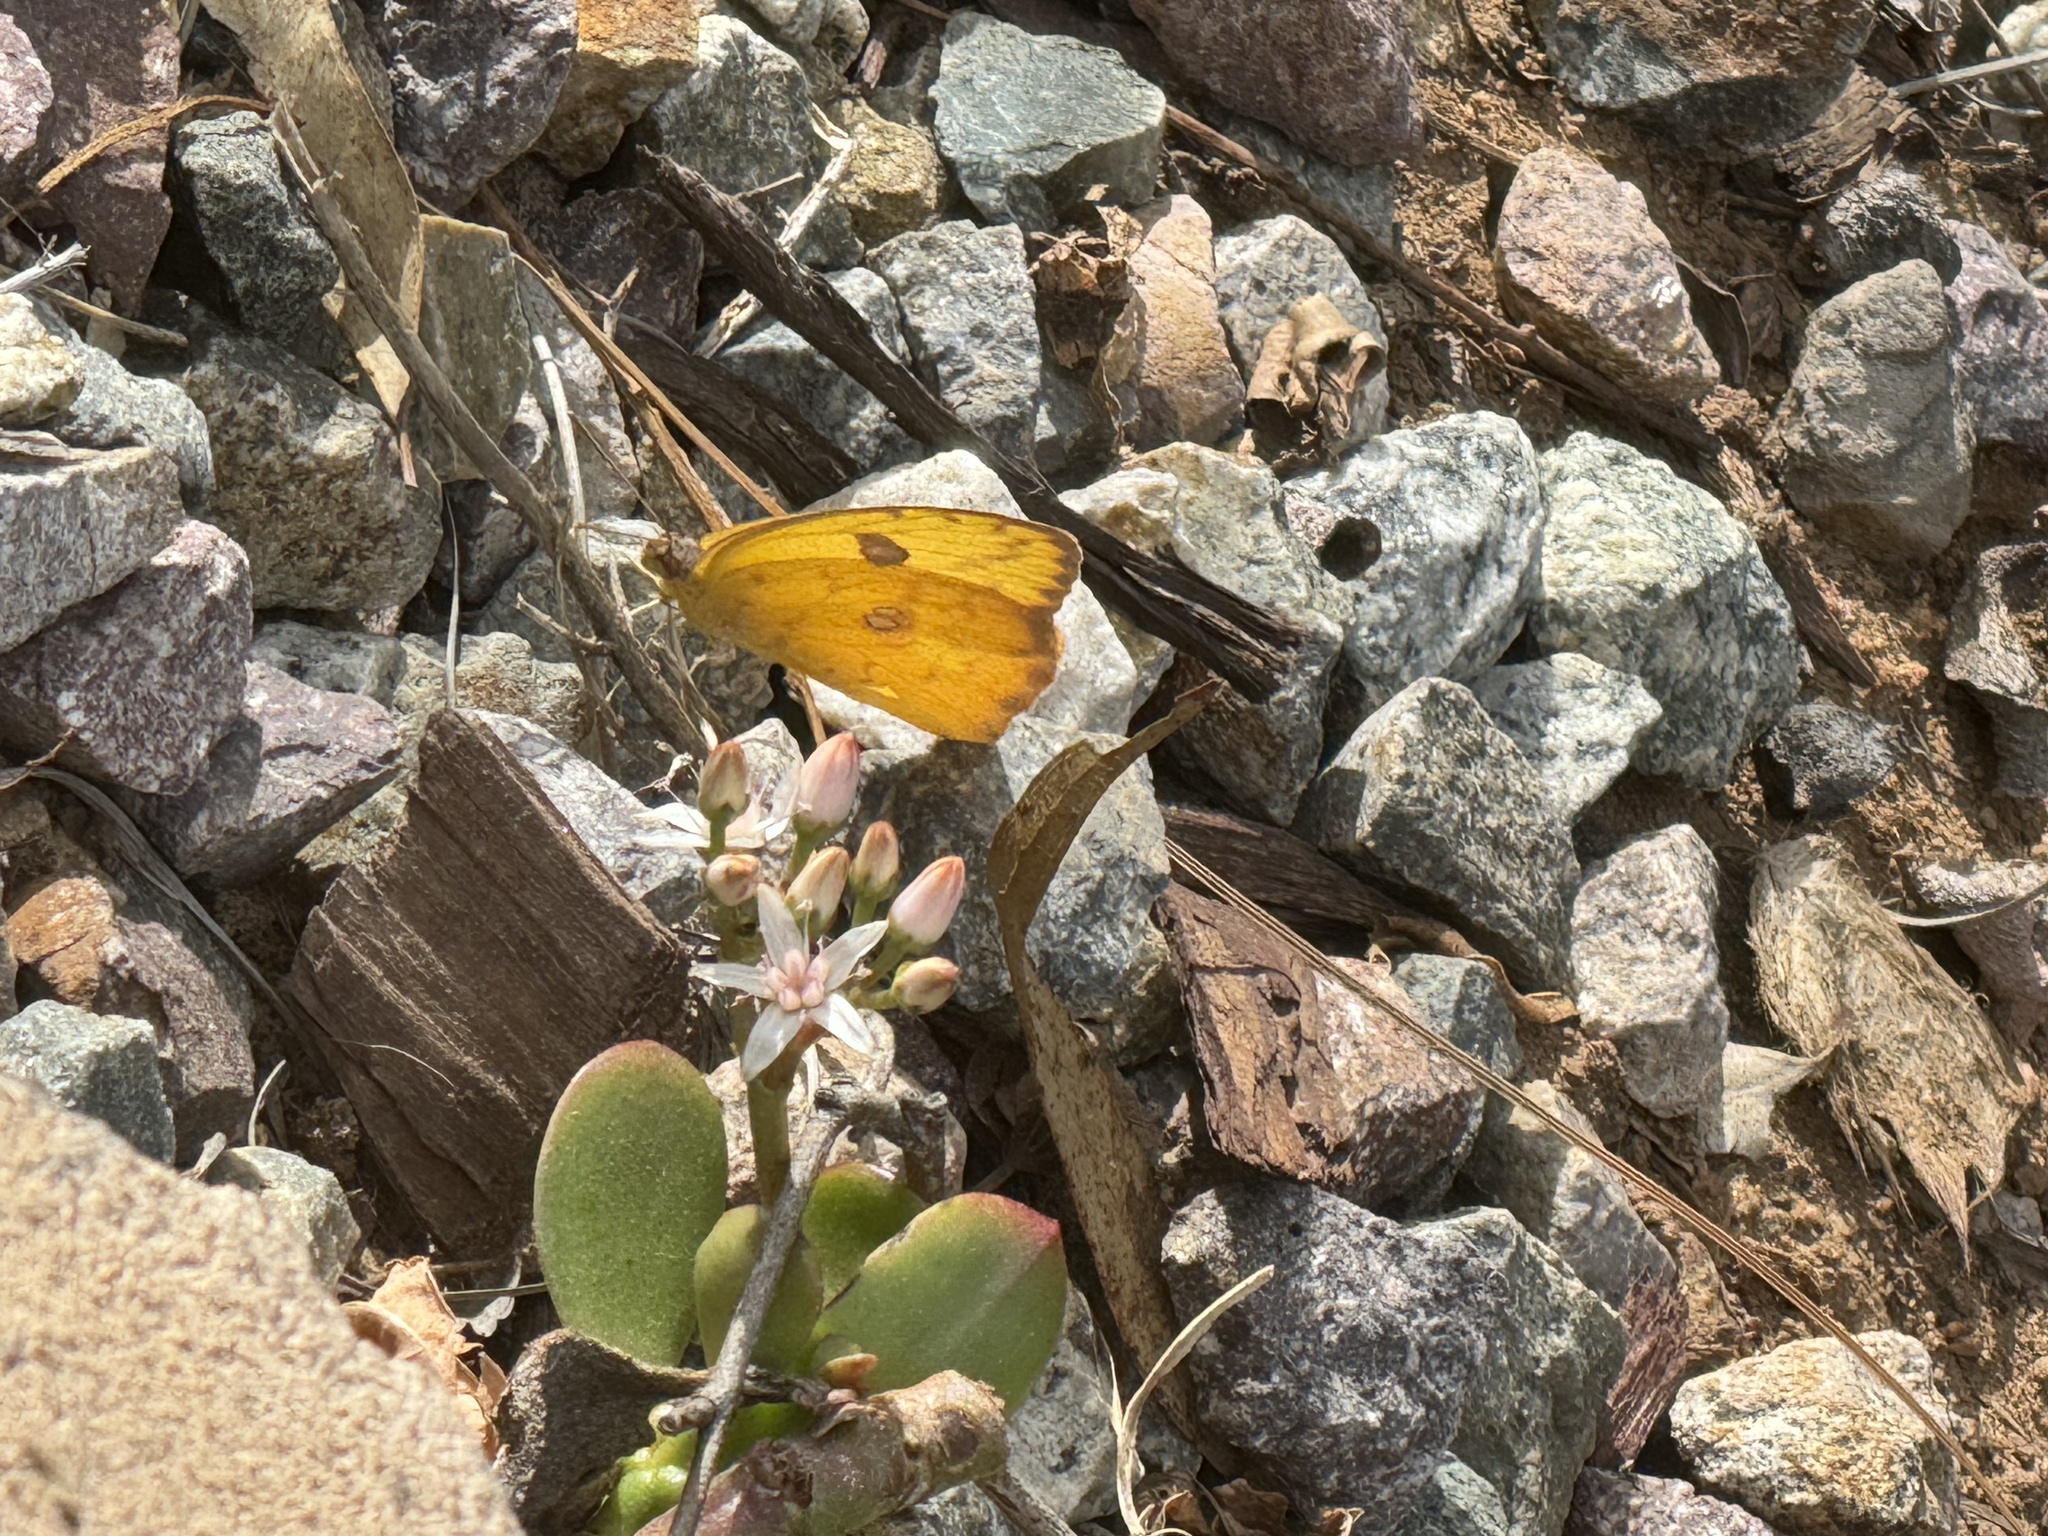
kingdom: Animalia
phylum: Arthropoda
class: Insecta
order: Lepidoptera
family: Pieridae
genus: Phoebis
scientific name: Phoebis agarithe
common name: Large orange sulphur
